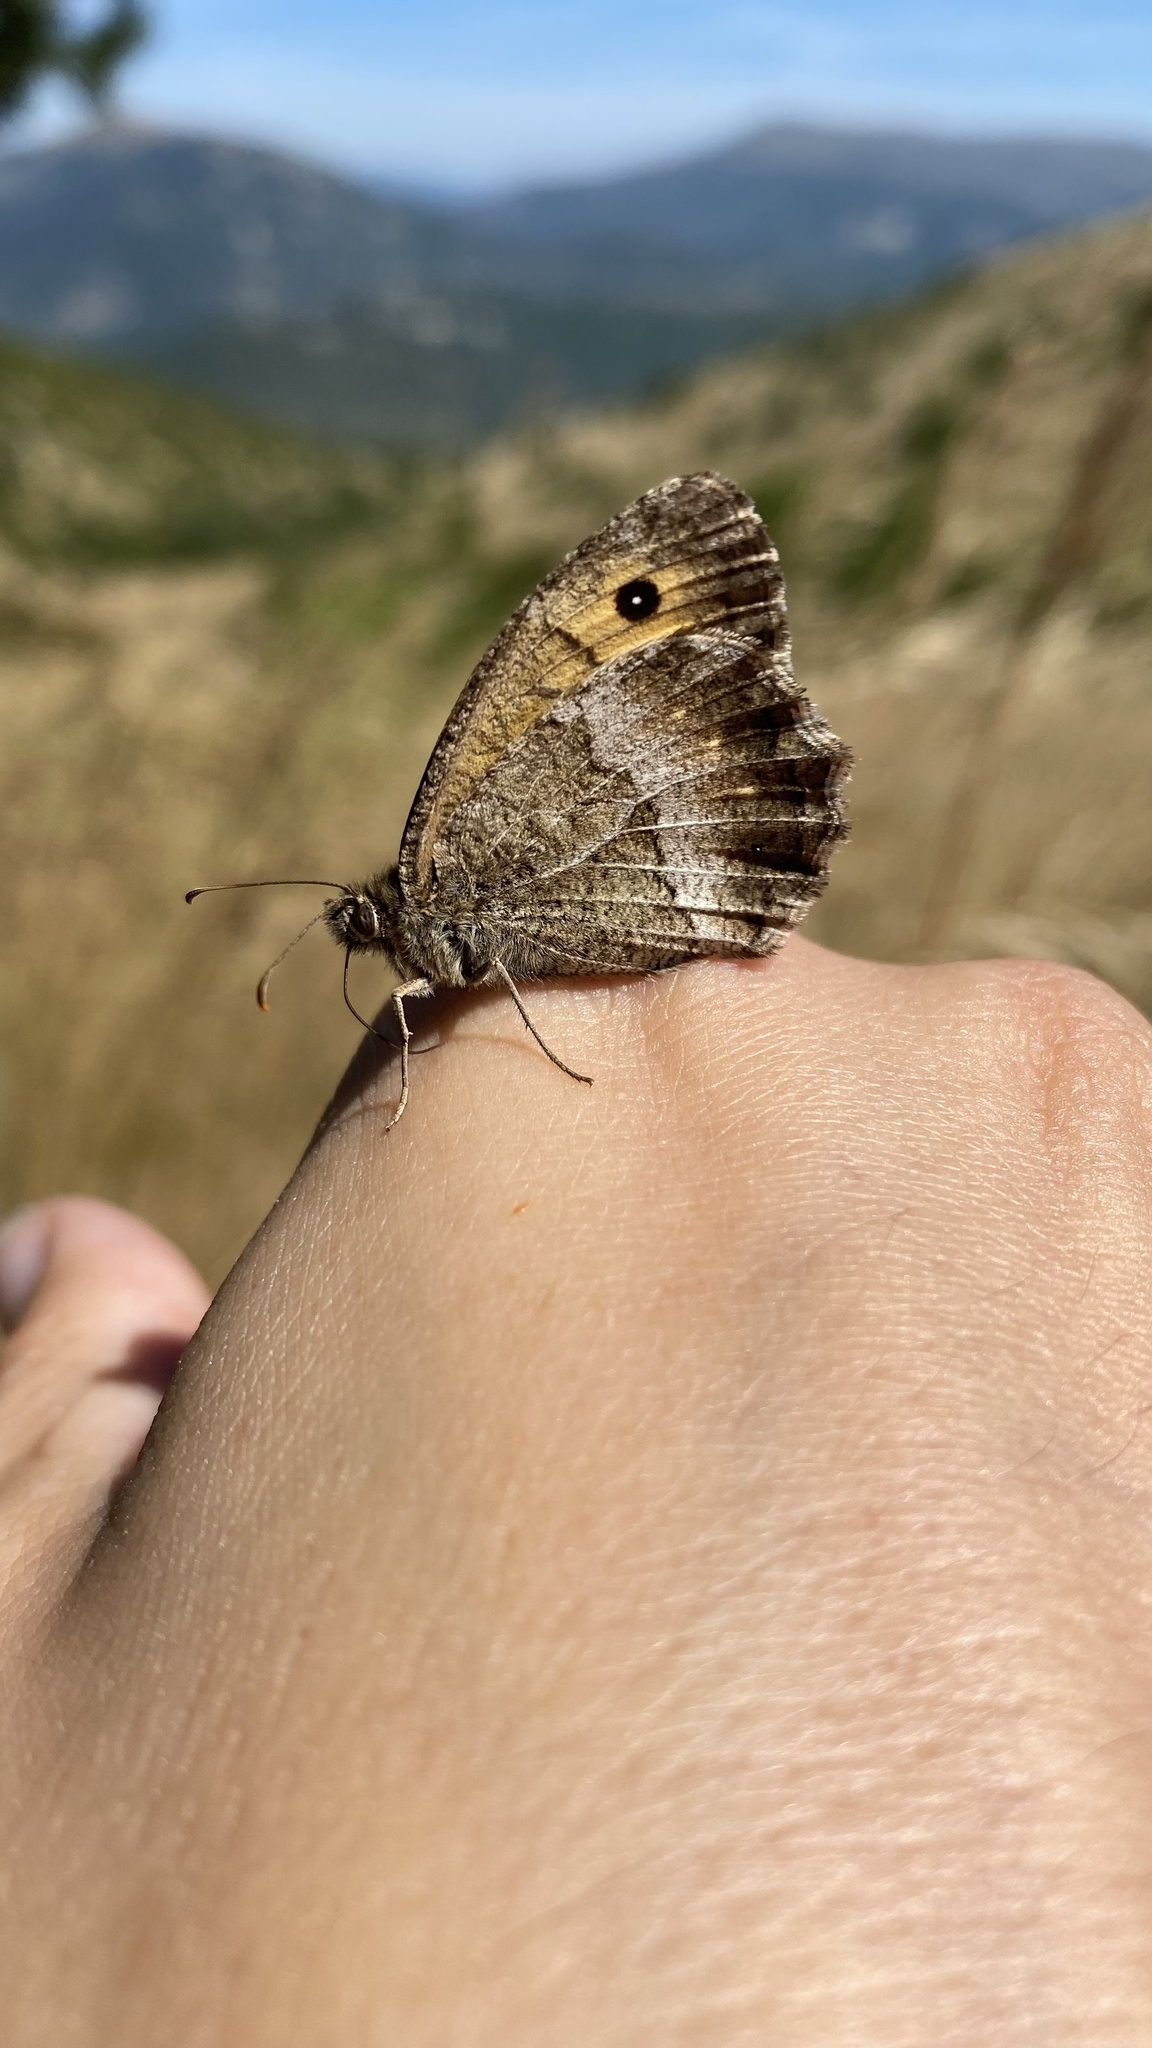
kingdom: Animalia
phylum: Arthropoda
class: Insecta
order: Lepidoptera
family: Nymphalidae
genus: Arethusana
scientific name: Arethusana arethusa
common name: False grayling
